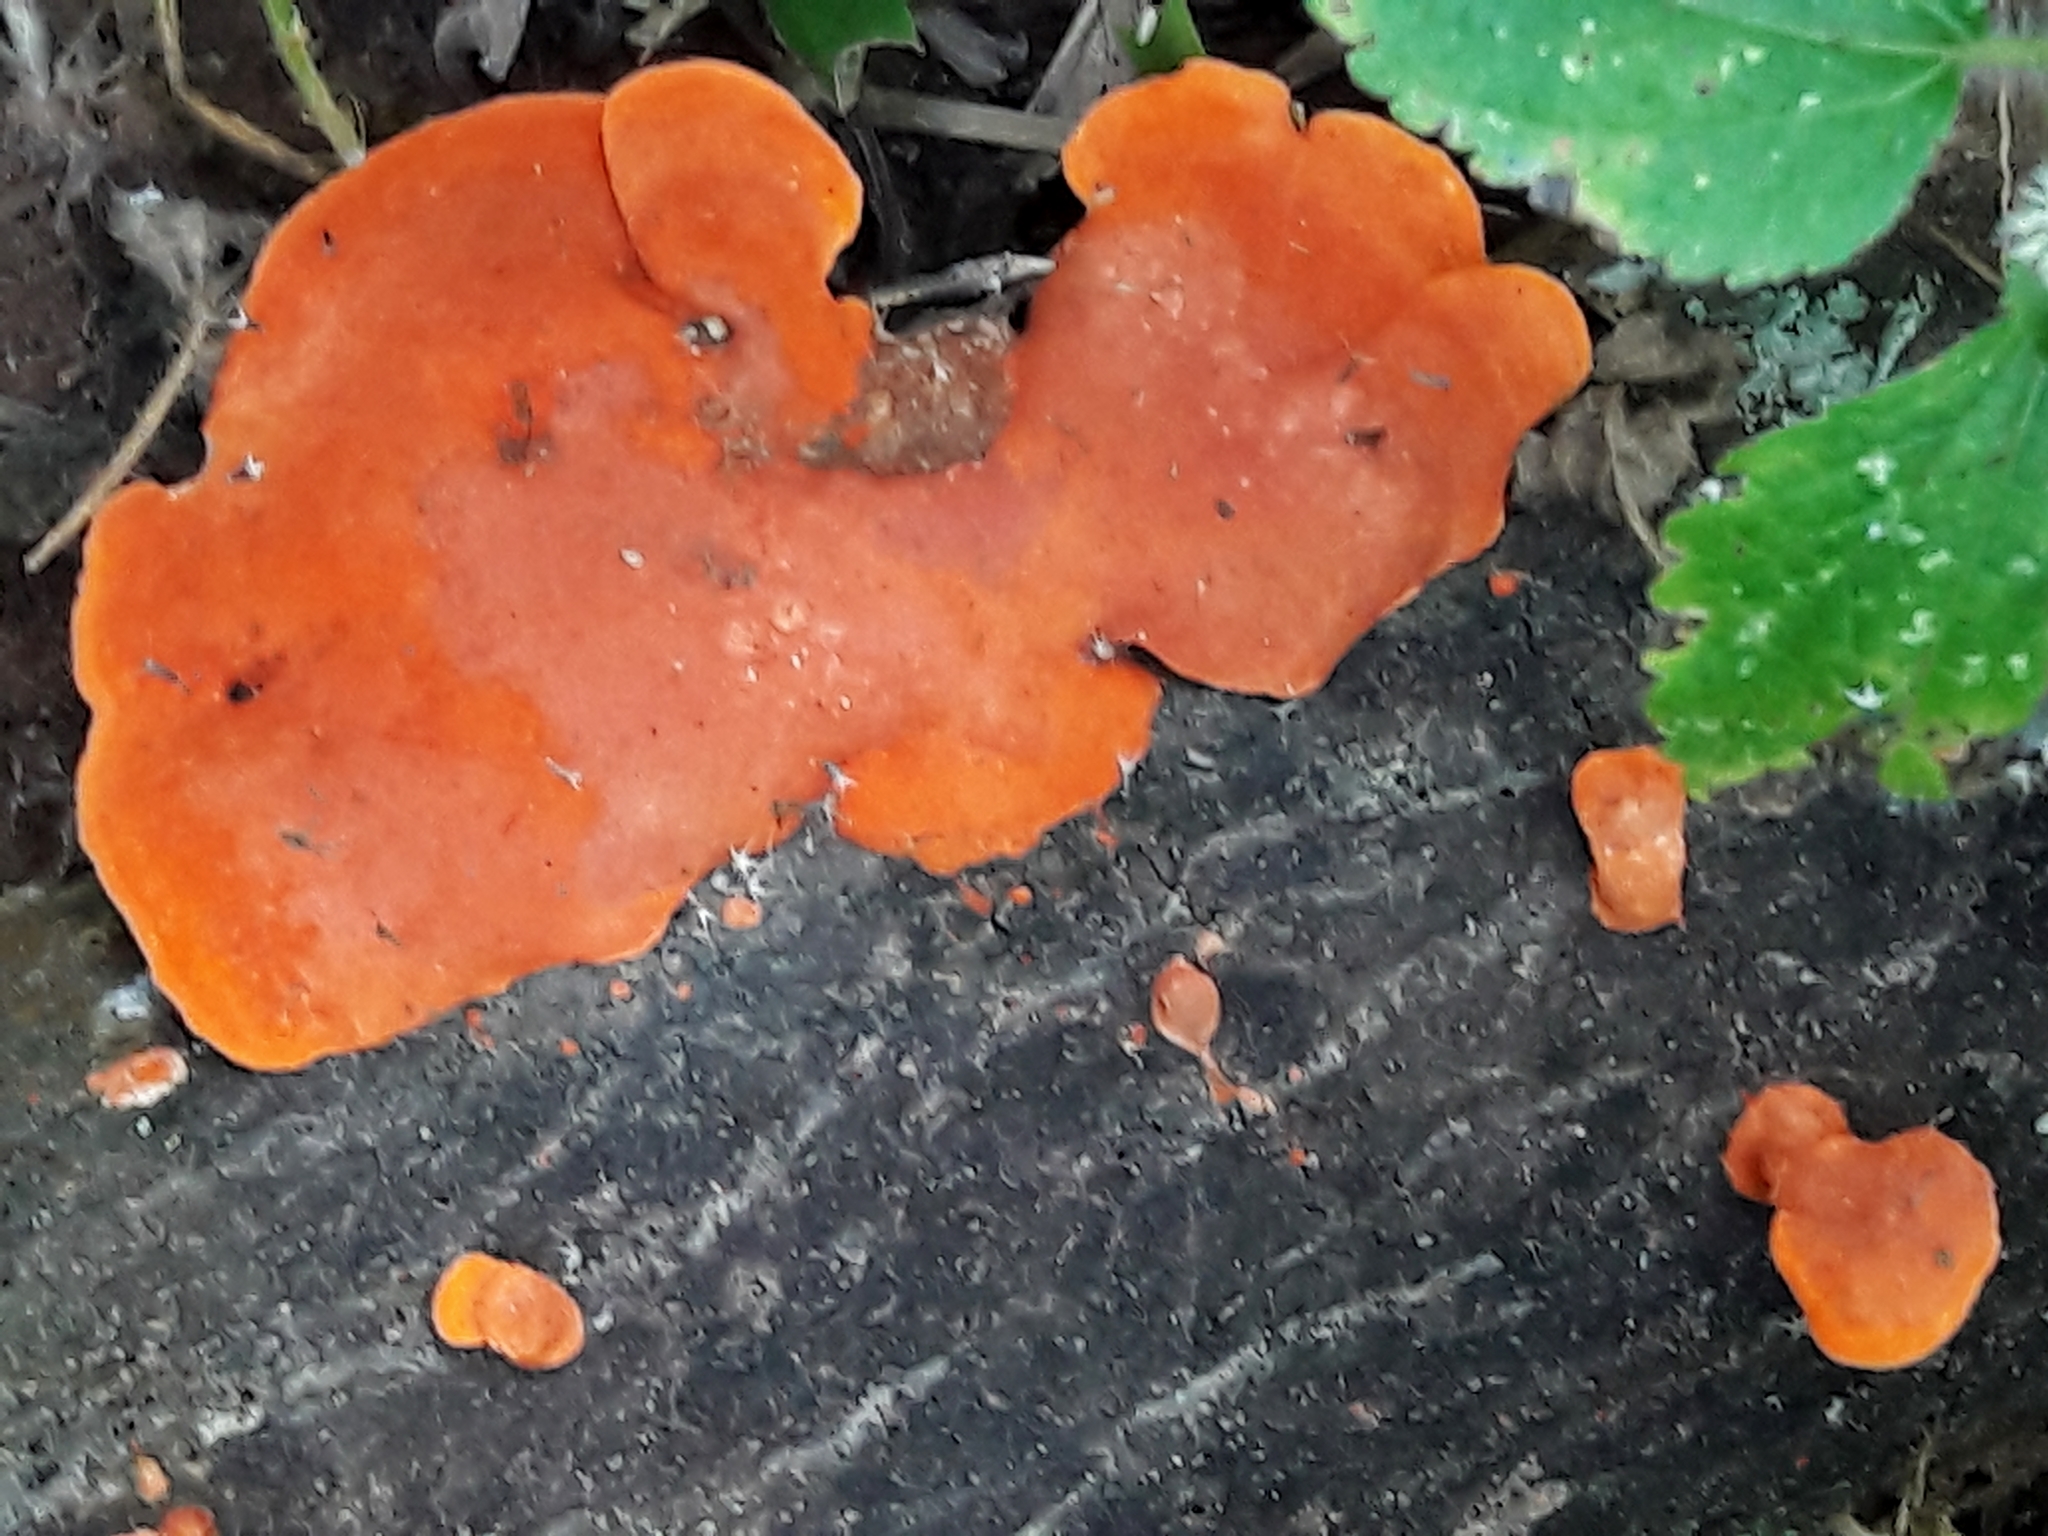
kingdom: Fungi
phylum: Basidiomycota
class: Agaricomycetes
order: Polyporales
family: Polyporaceae
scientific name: Polyporaceae
